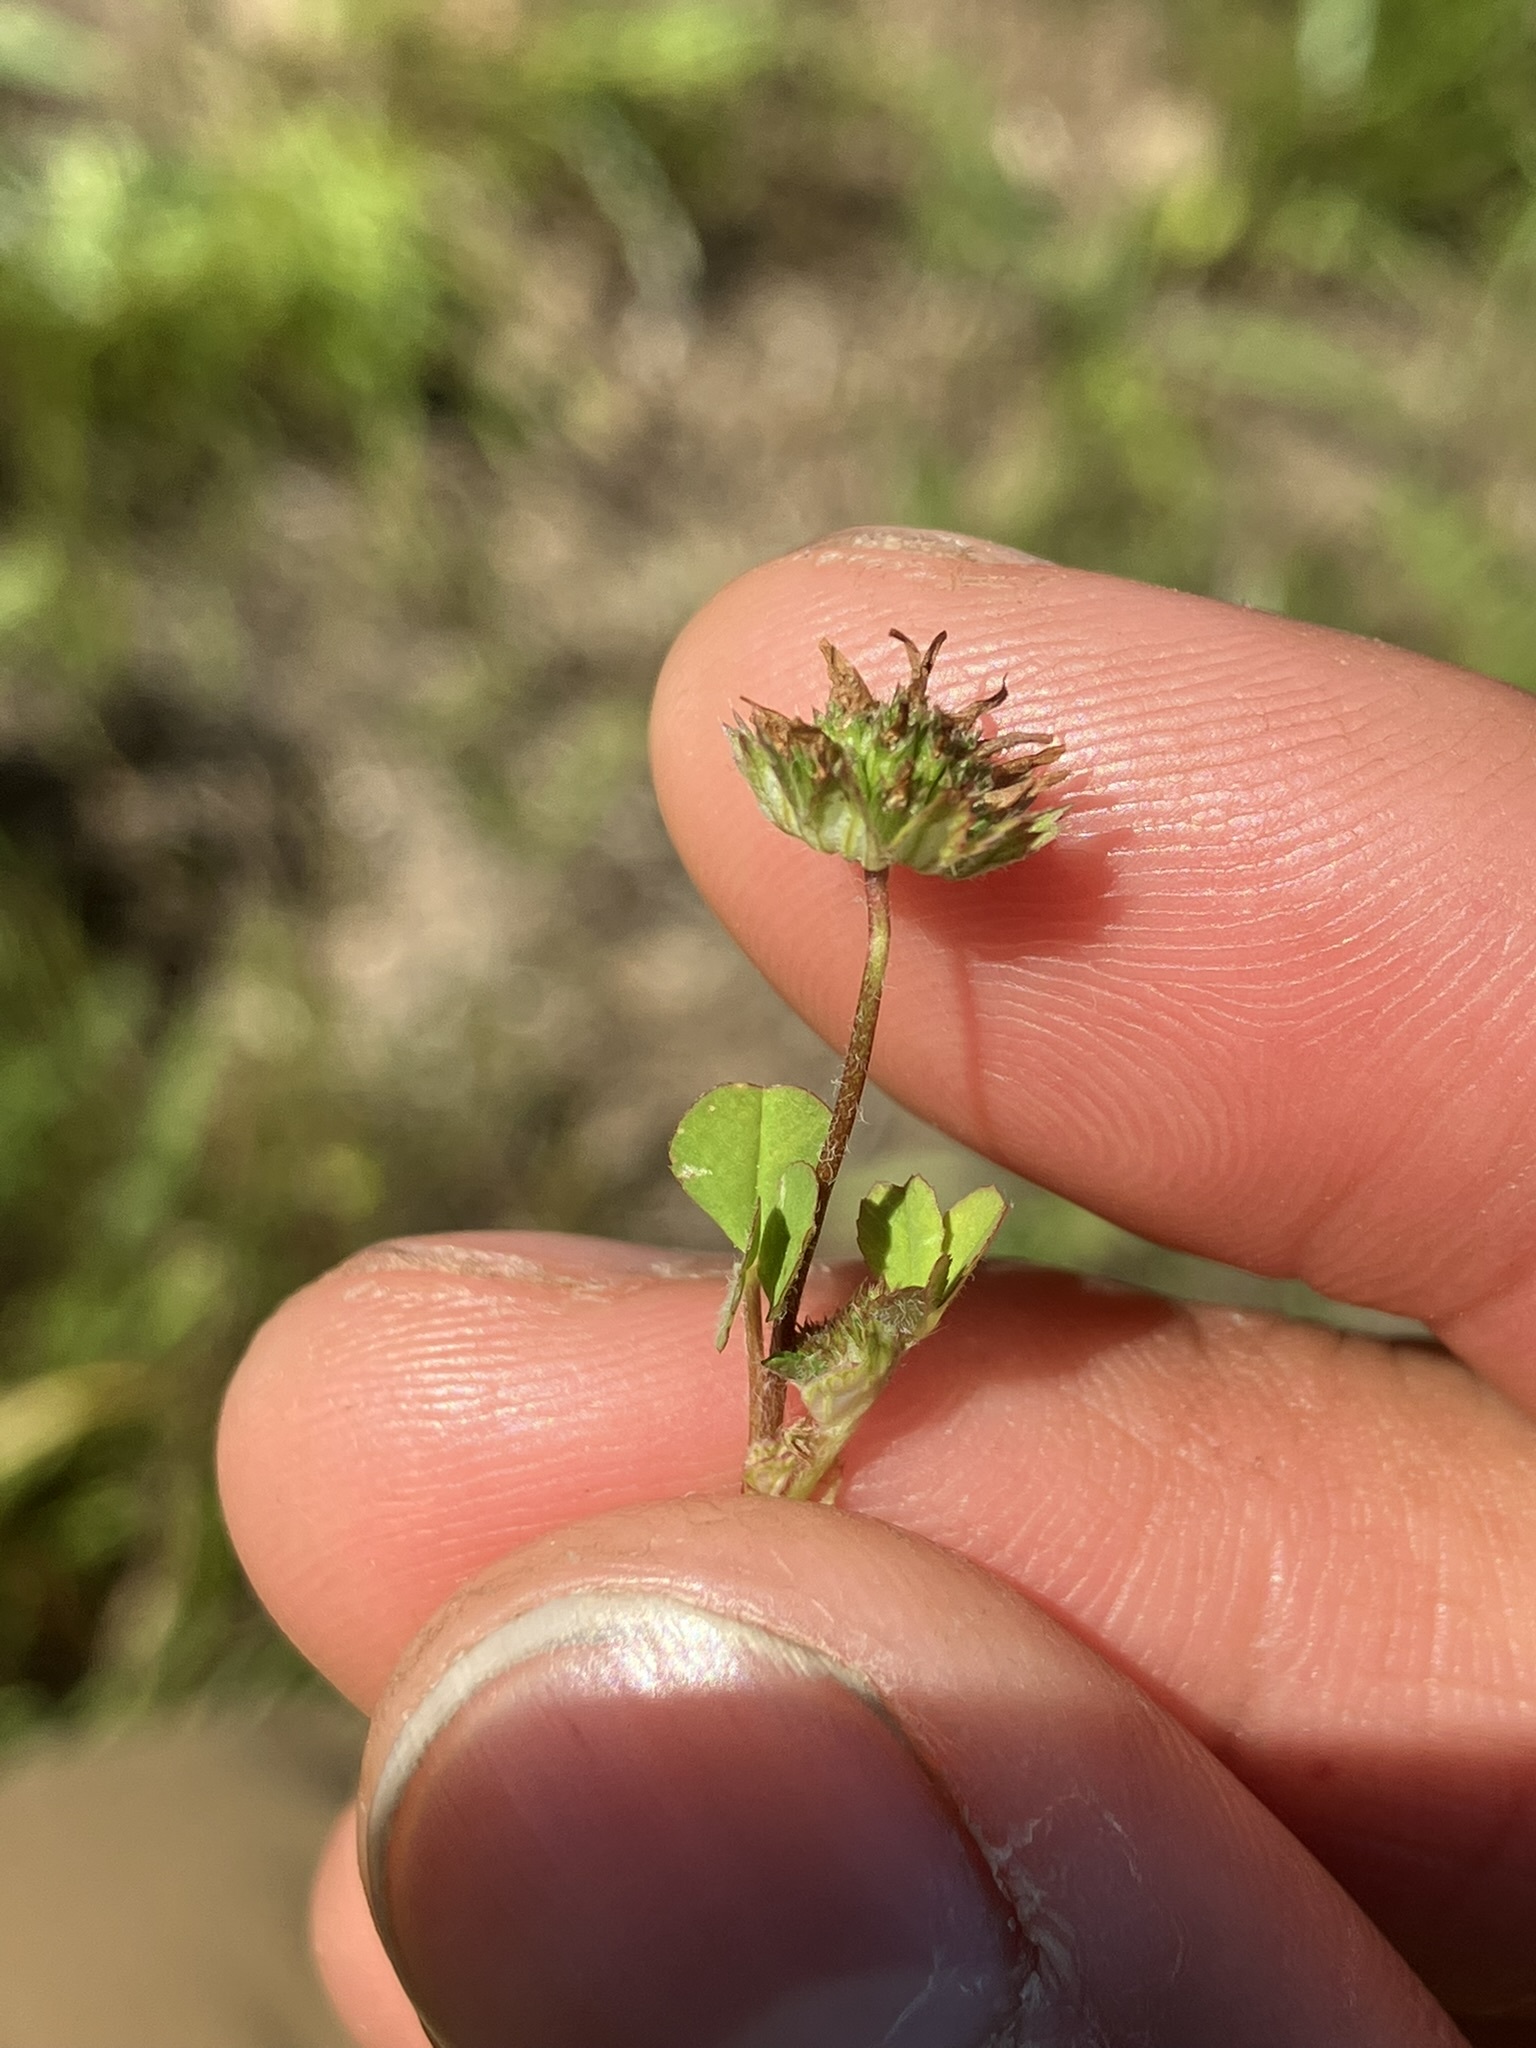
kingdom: Plantae
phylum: Tracheophyta
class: Magnoliopsida
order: Fabales
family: Fabaceae
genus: Trifolium
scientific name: Trifolium microdon
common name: Thimble clover
